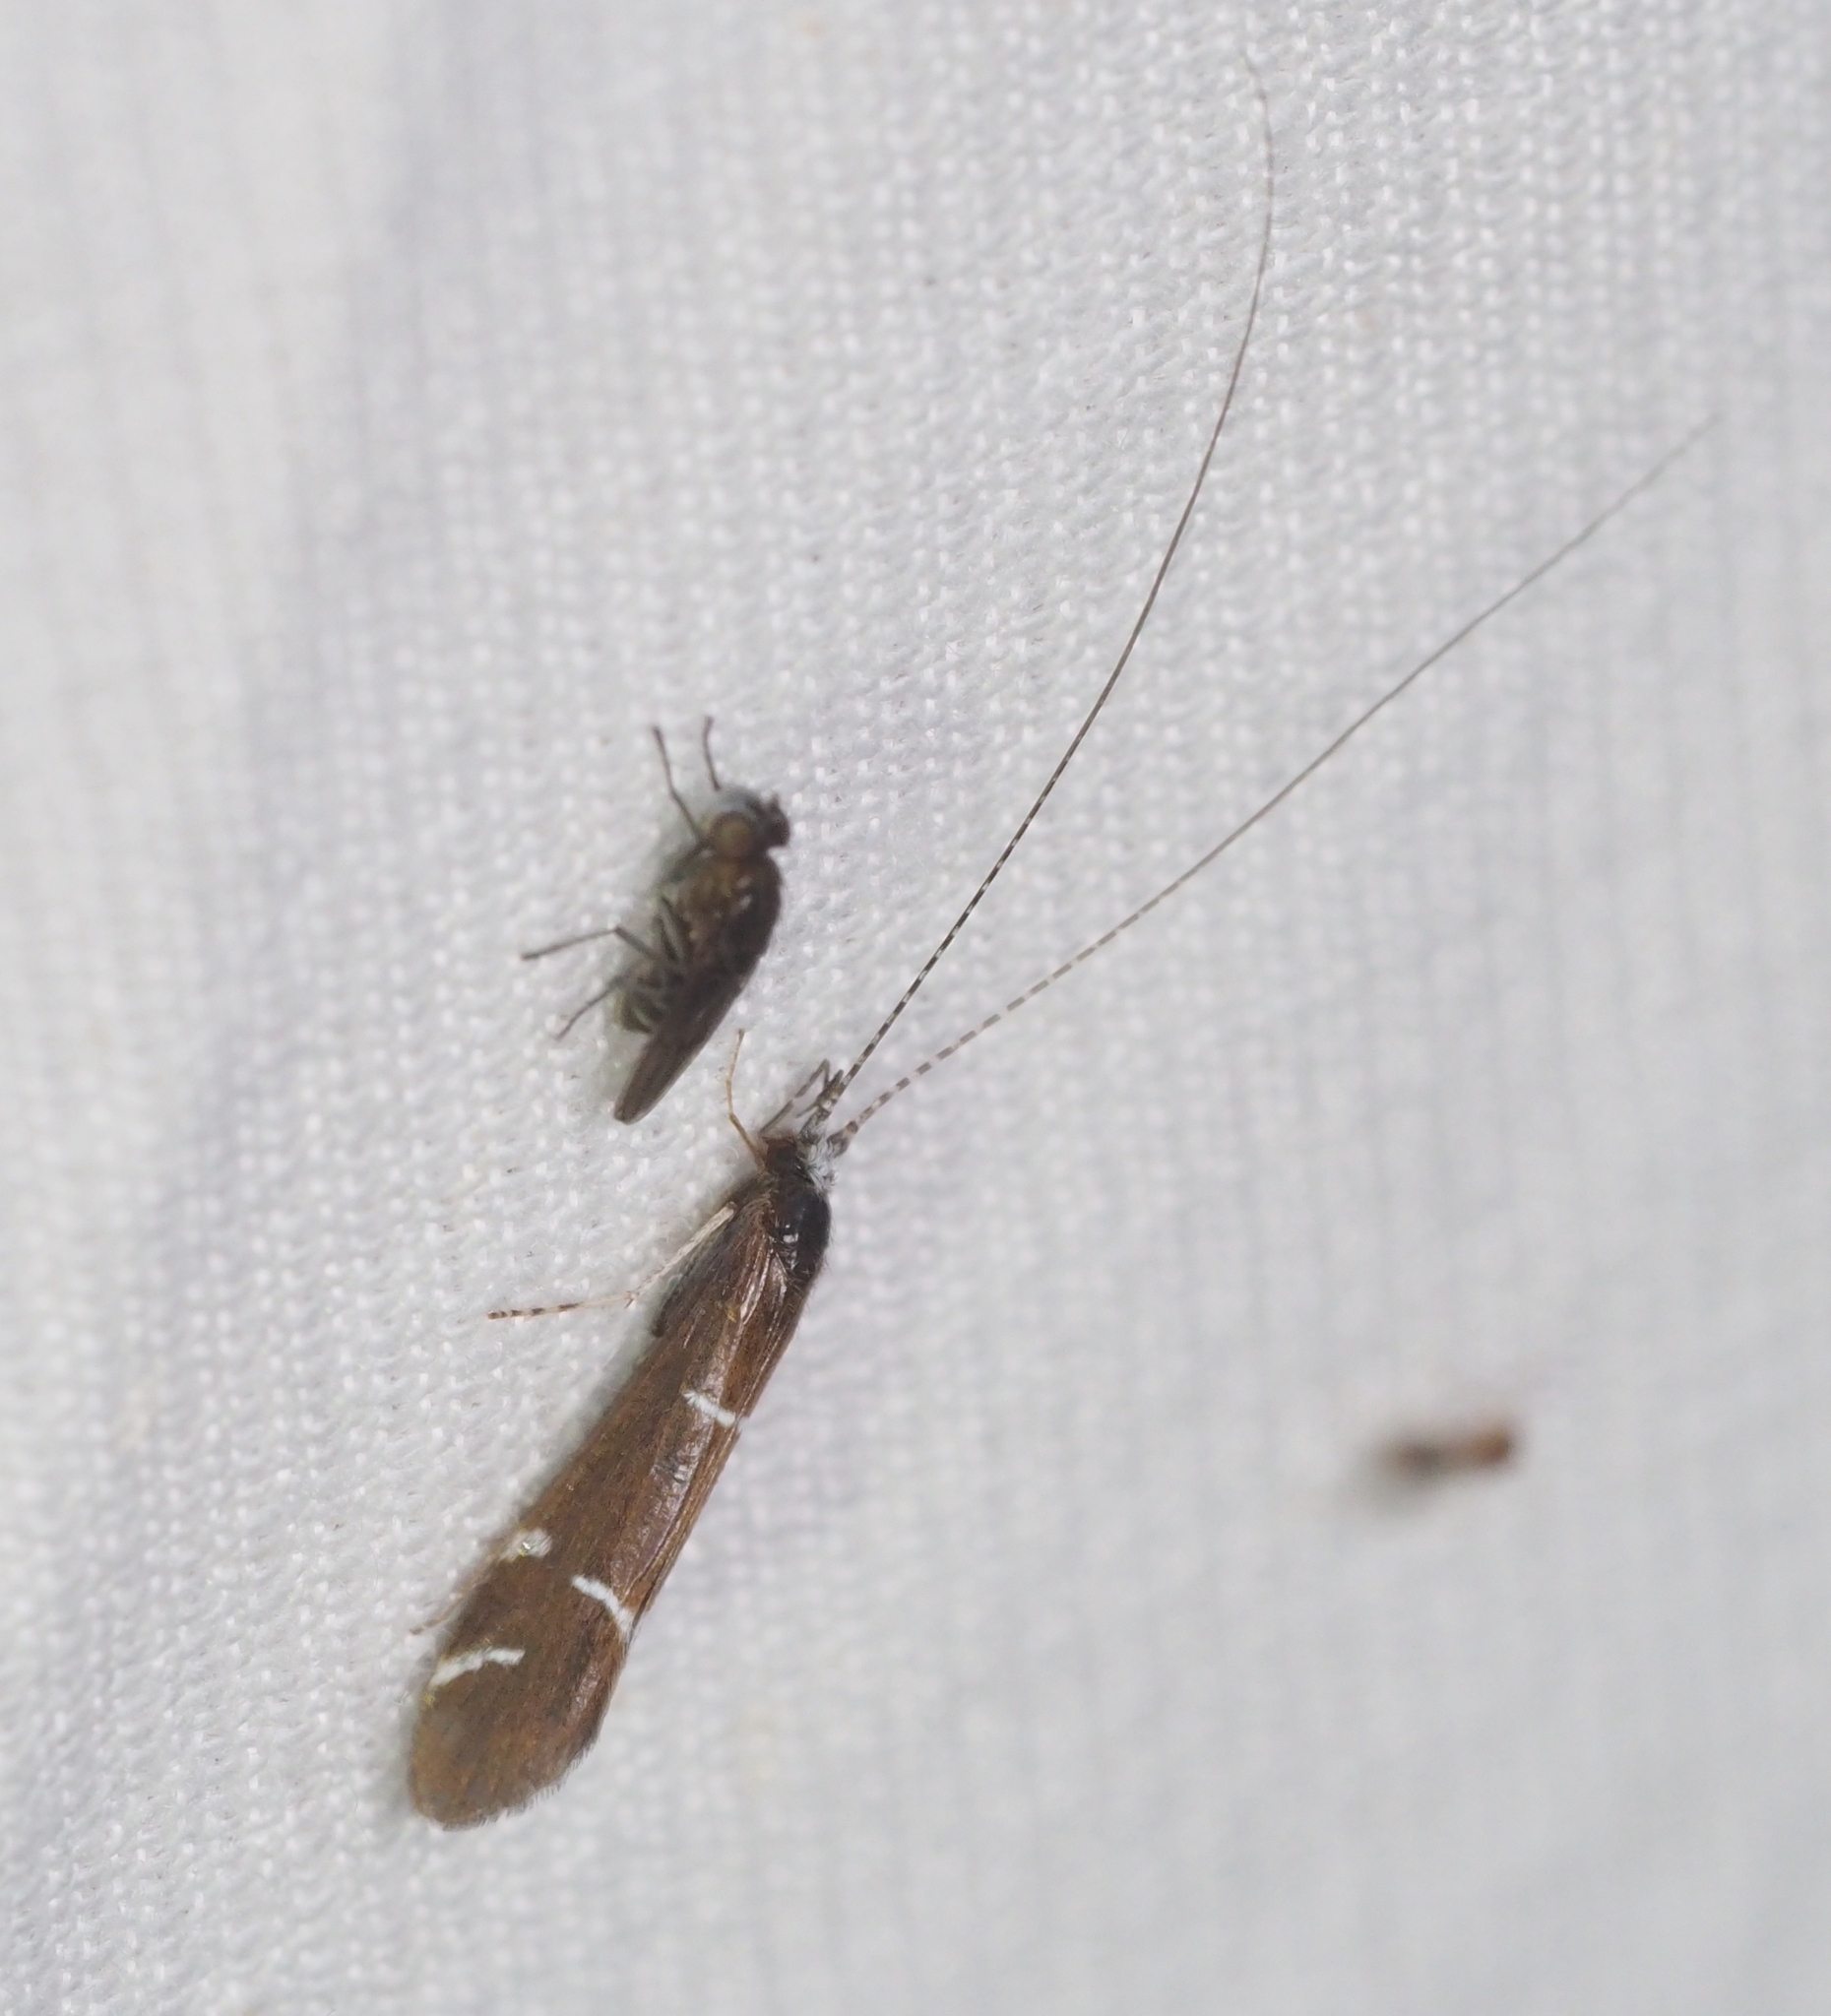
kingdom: Animalia
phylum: Arthropoda
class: Insecta
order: Trichoptera
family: Leptoceridae
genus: Athripsodes
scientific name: Athripsodes albifrons
